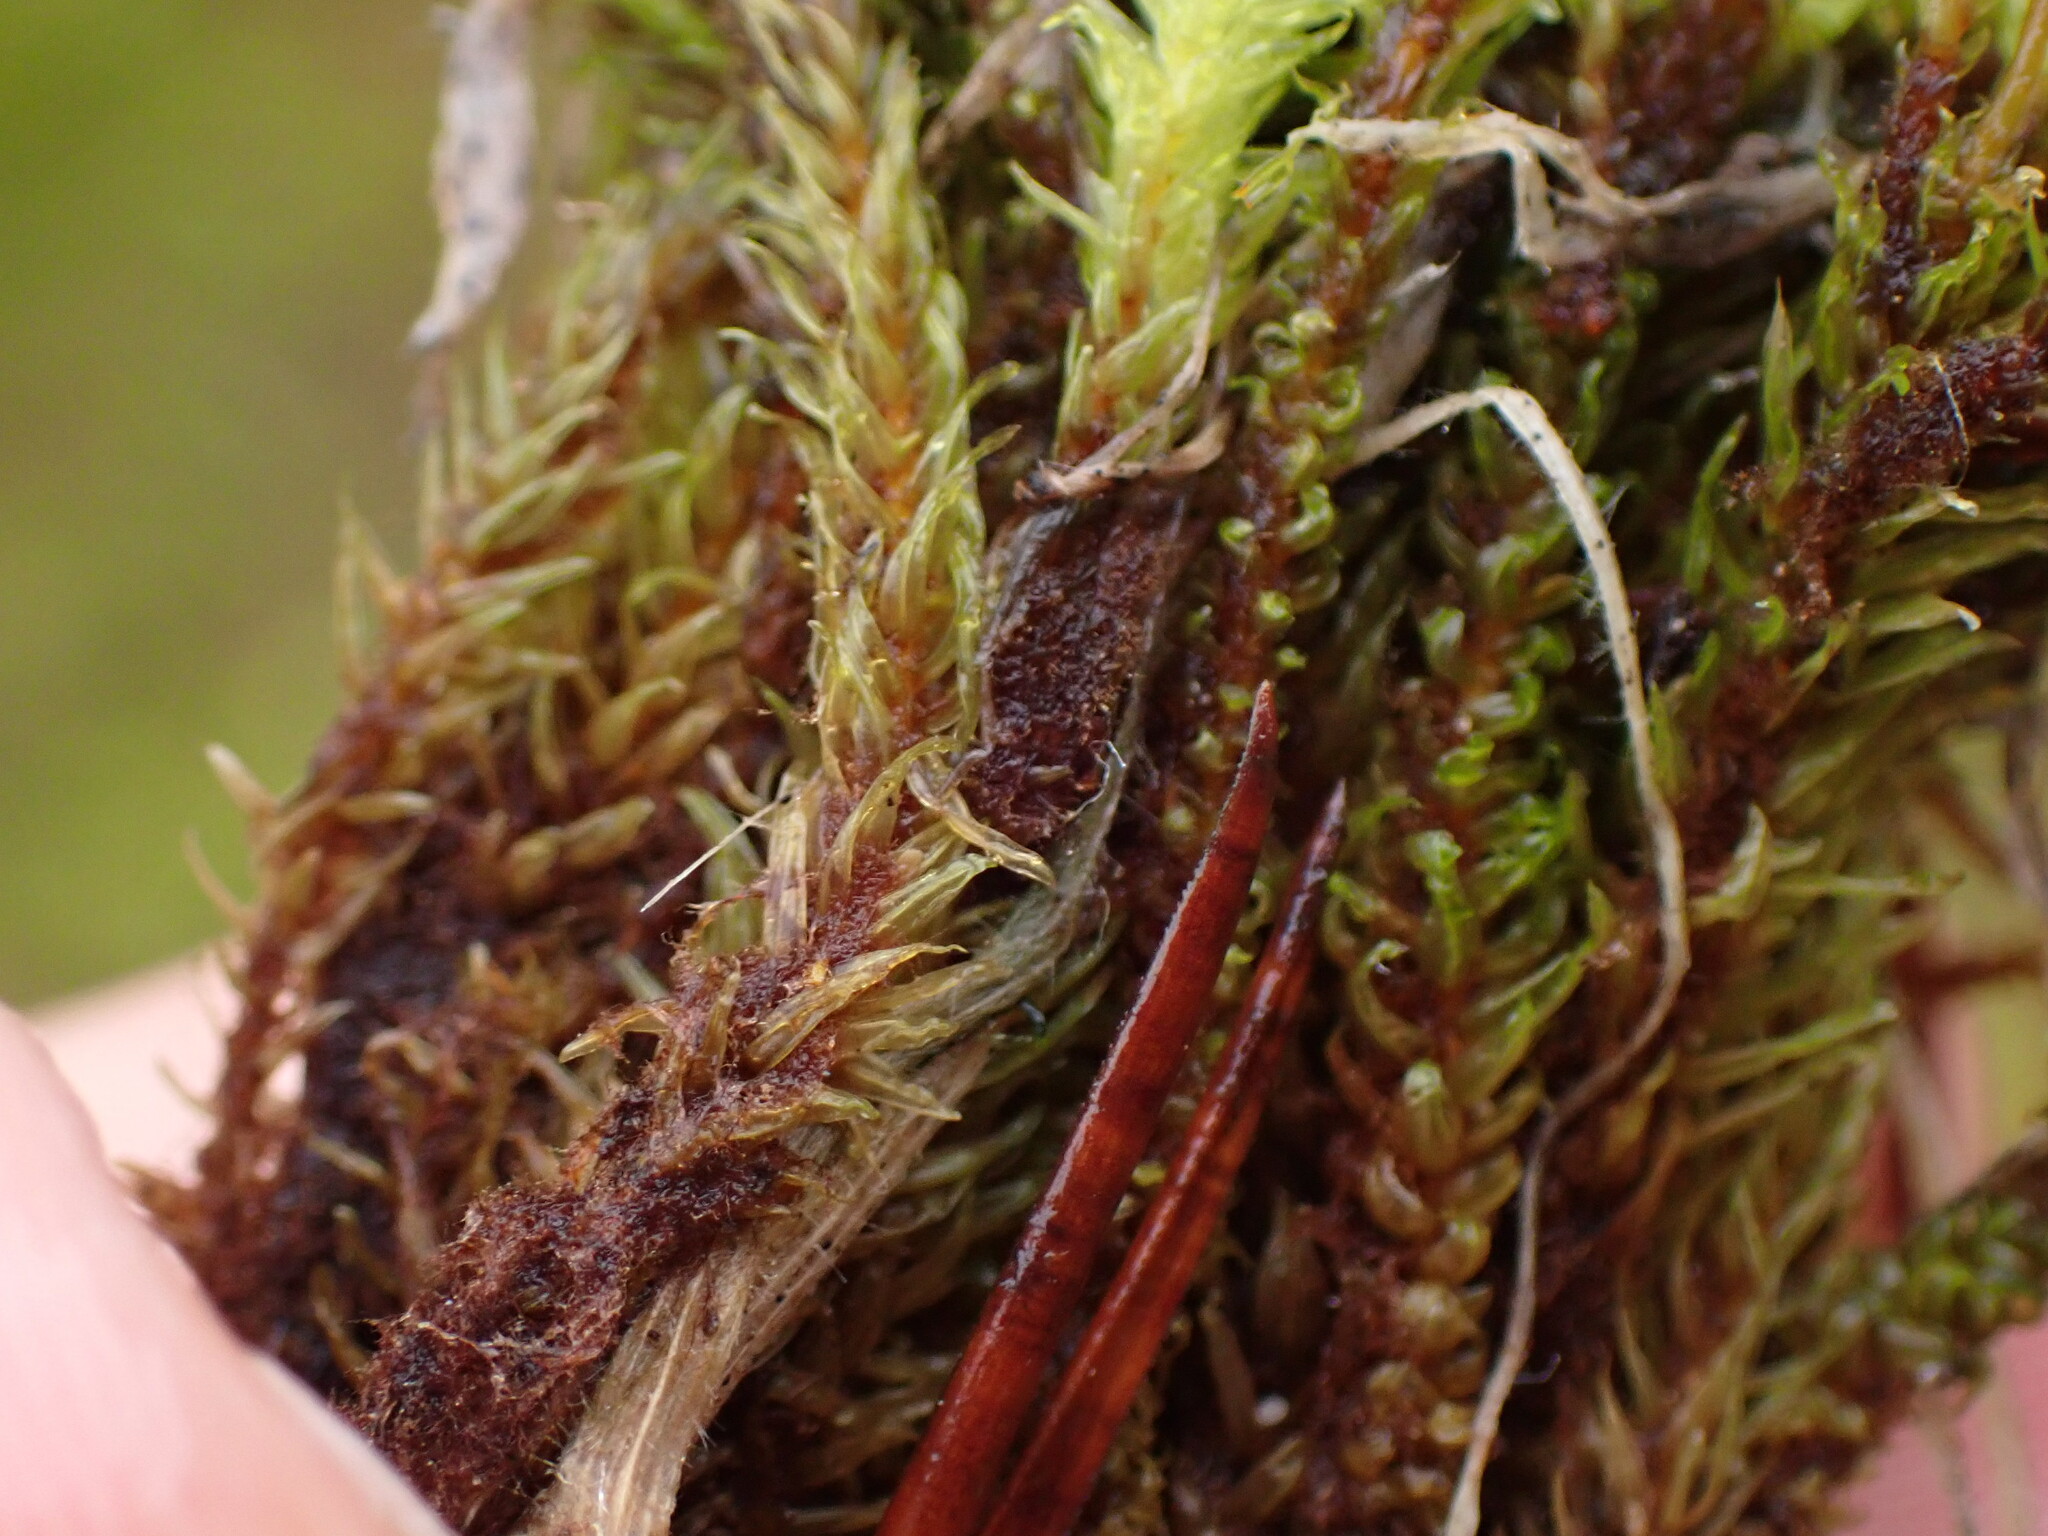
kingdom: Plantae
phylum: Bryophyta
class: Bryopsida
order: Aulacomniales
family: Aulacomniaceae
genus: Aulacomnium
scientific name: Aulacomnium palustre
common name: Bog groove-moss
